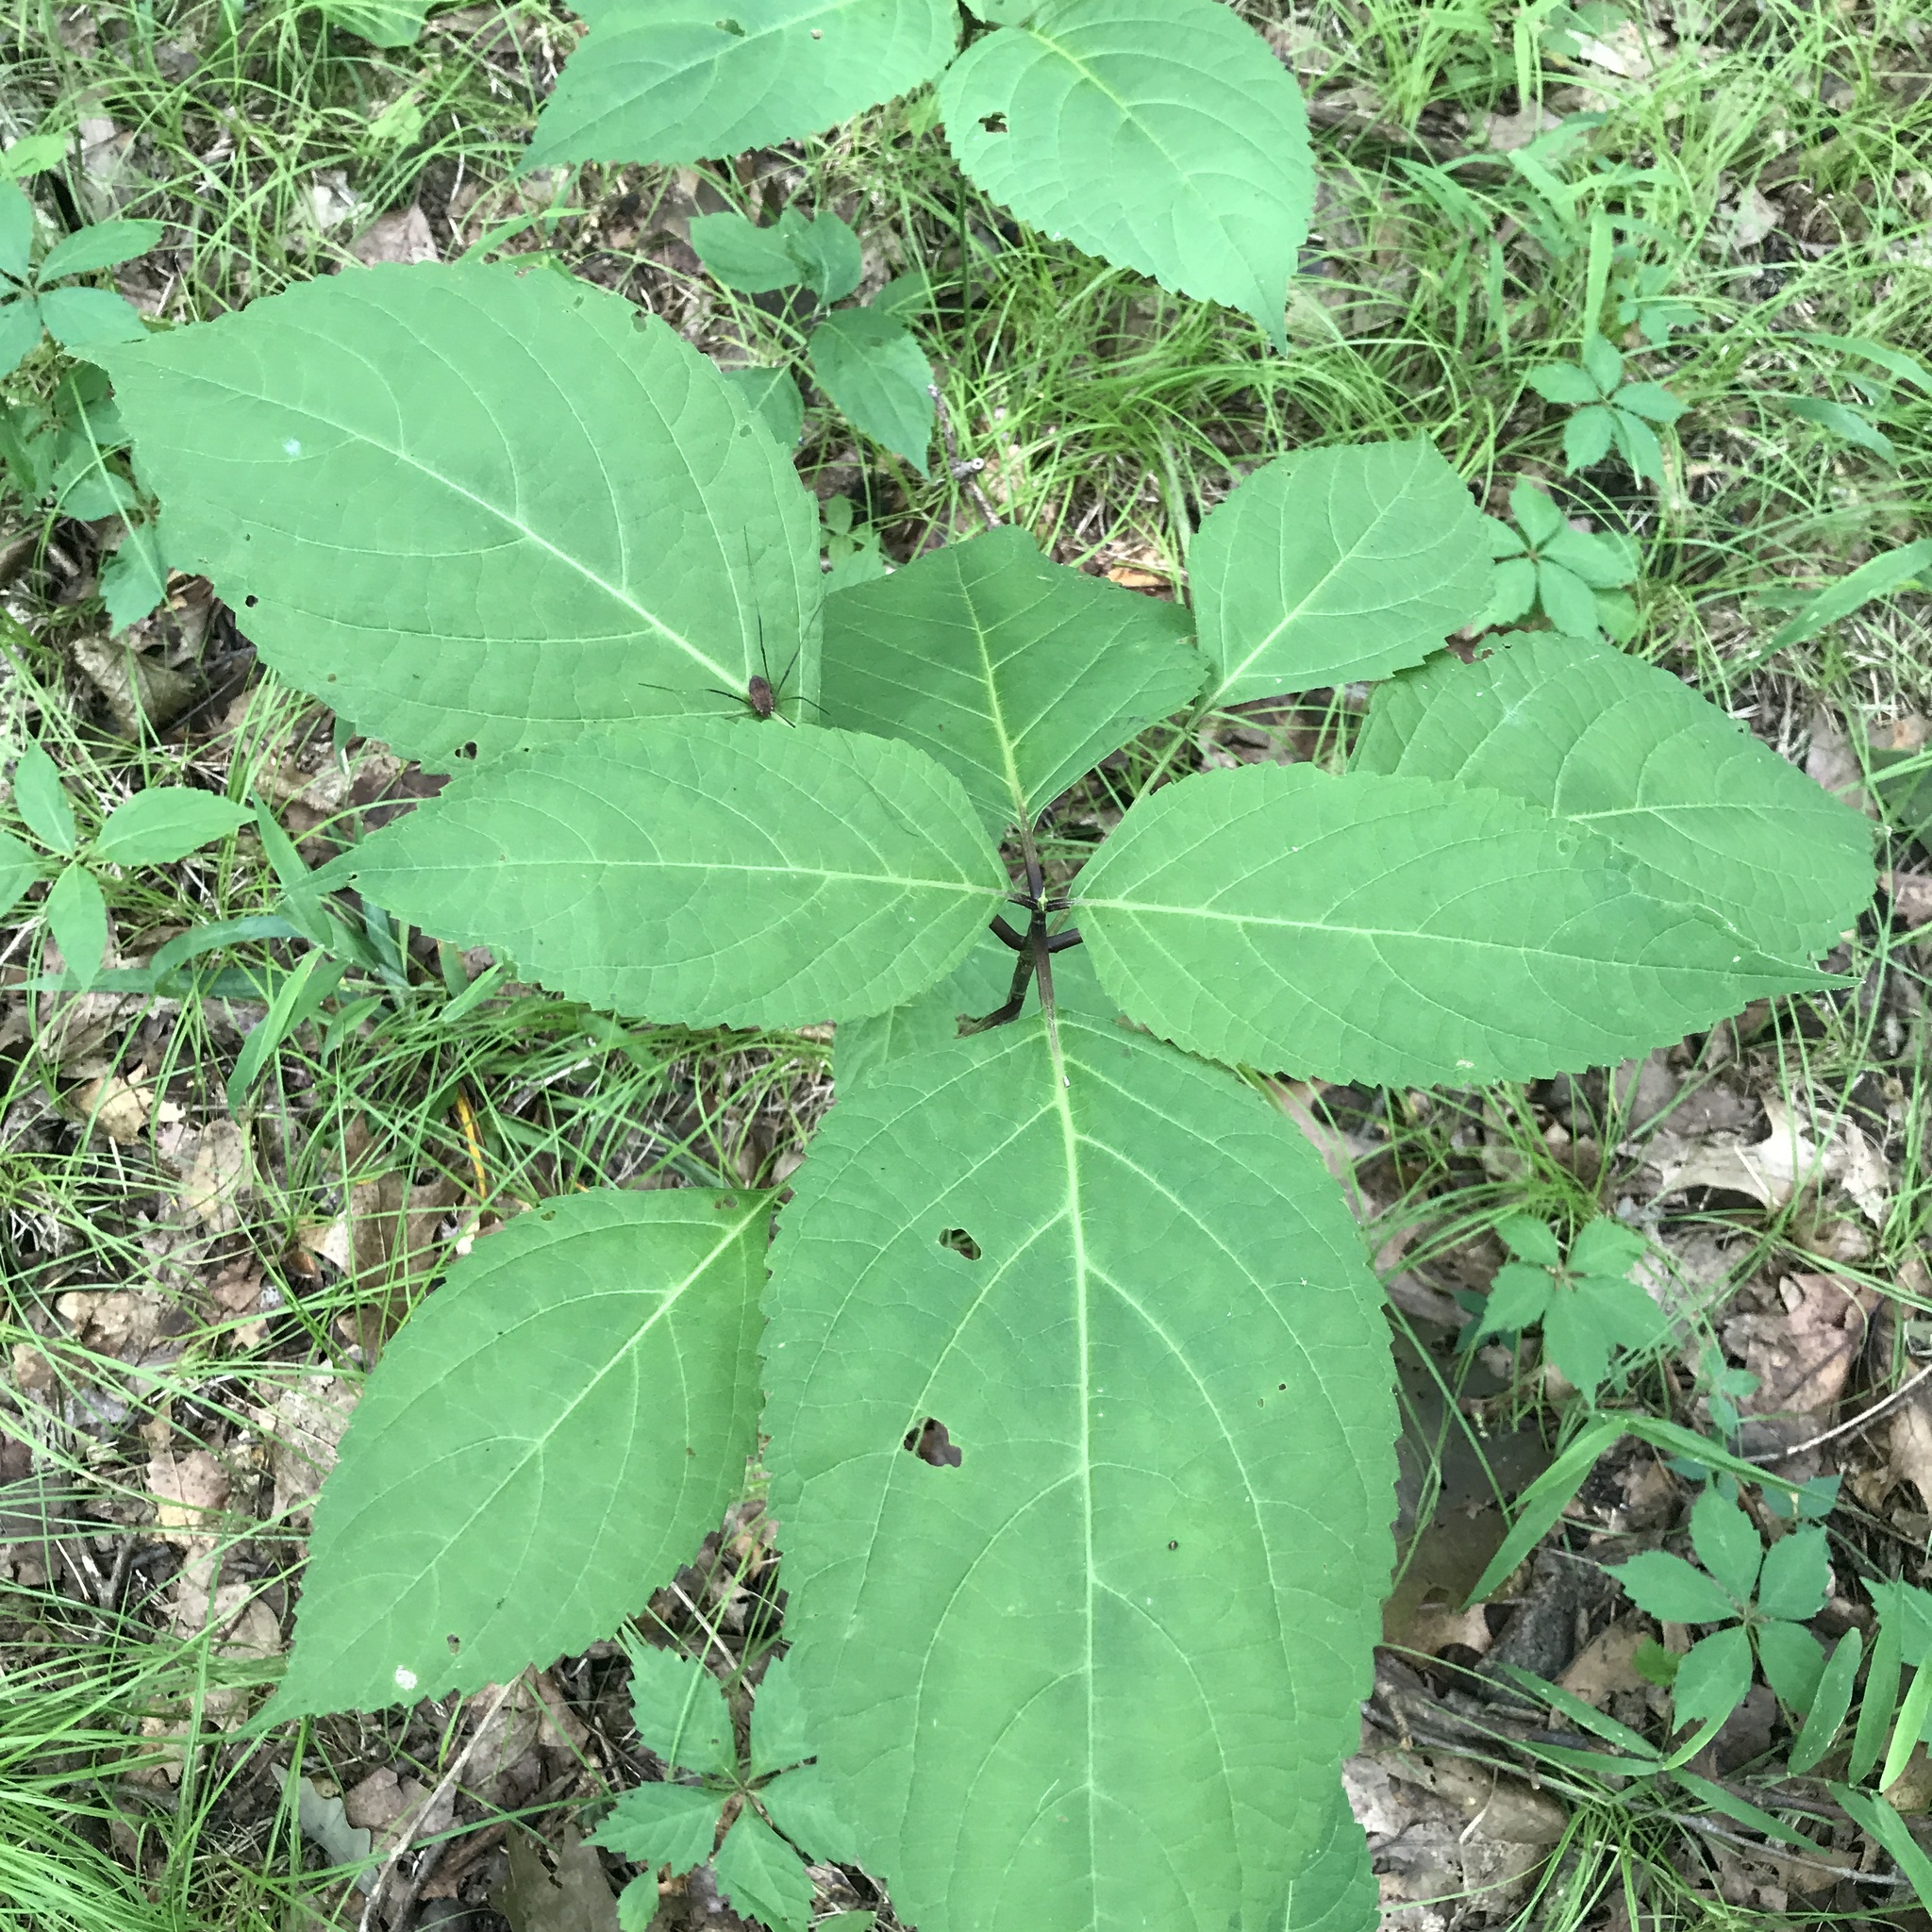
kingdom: Plantae
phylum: Tracheophyta
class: Magnoliopsida
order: Lamiales
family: Lamiaceae
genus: Collinsonia
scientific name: Collinsonia canadensis
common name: Northern horsebalm
